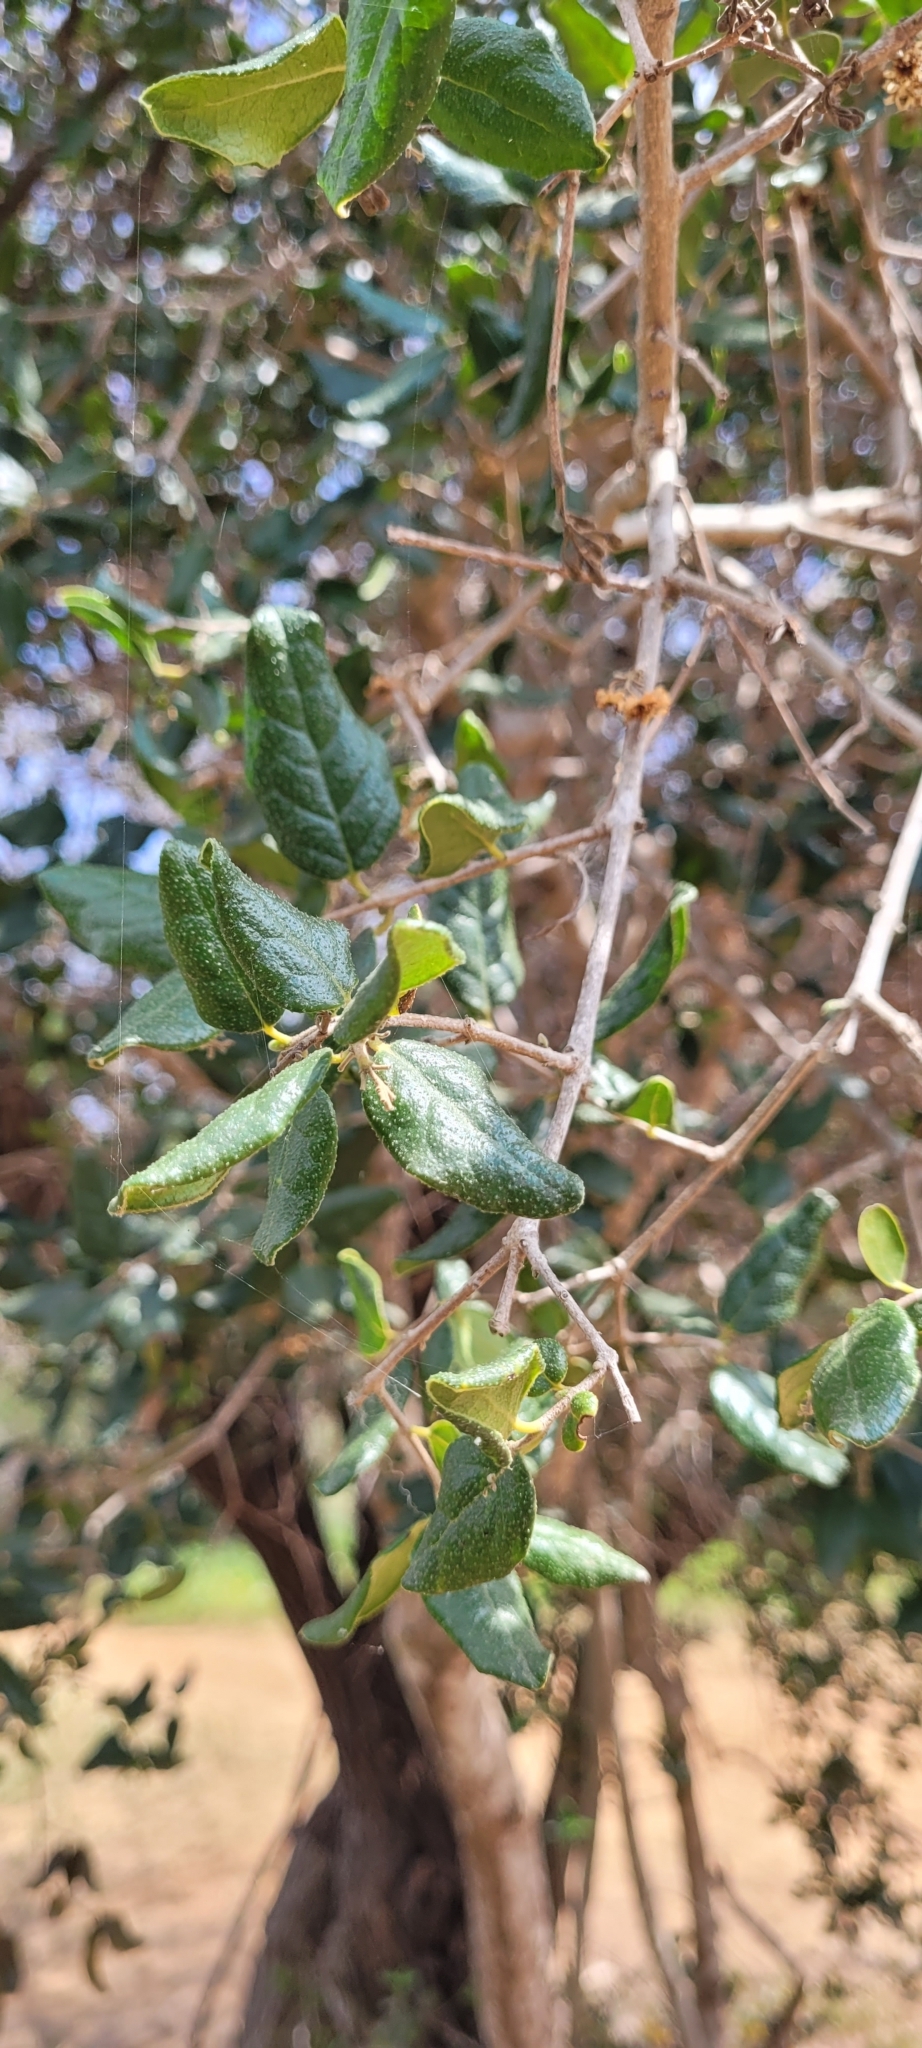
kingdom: Plantae
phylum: Tracheophyta
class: Magnoliopsida
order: Laurales
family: Monimiaceae
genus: Peumus
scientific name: Peumus boldus
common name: Boldo
